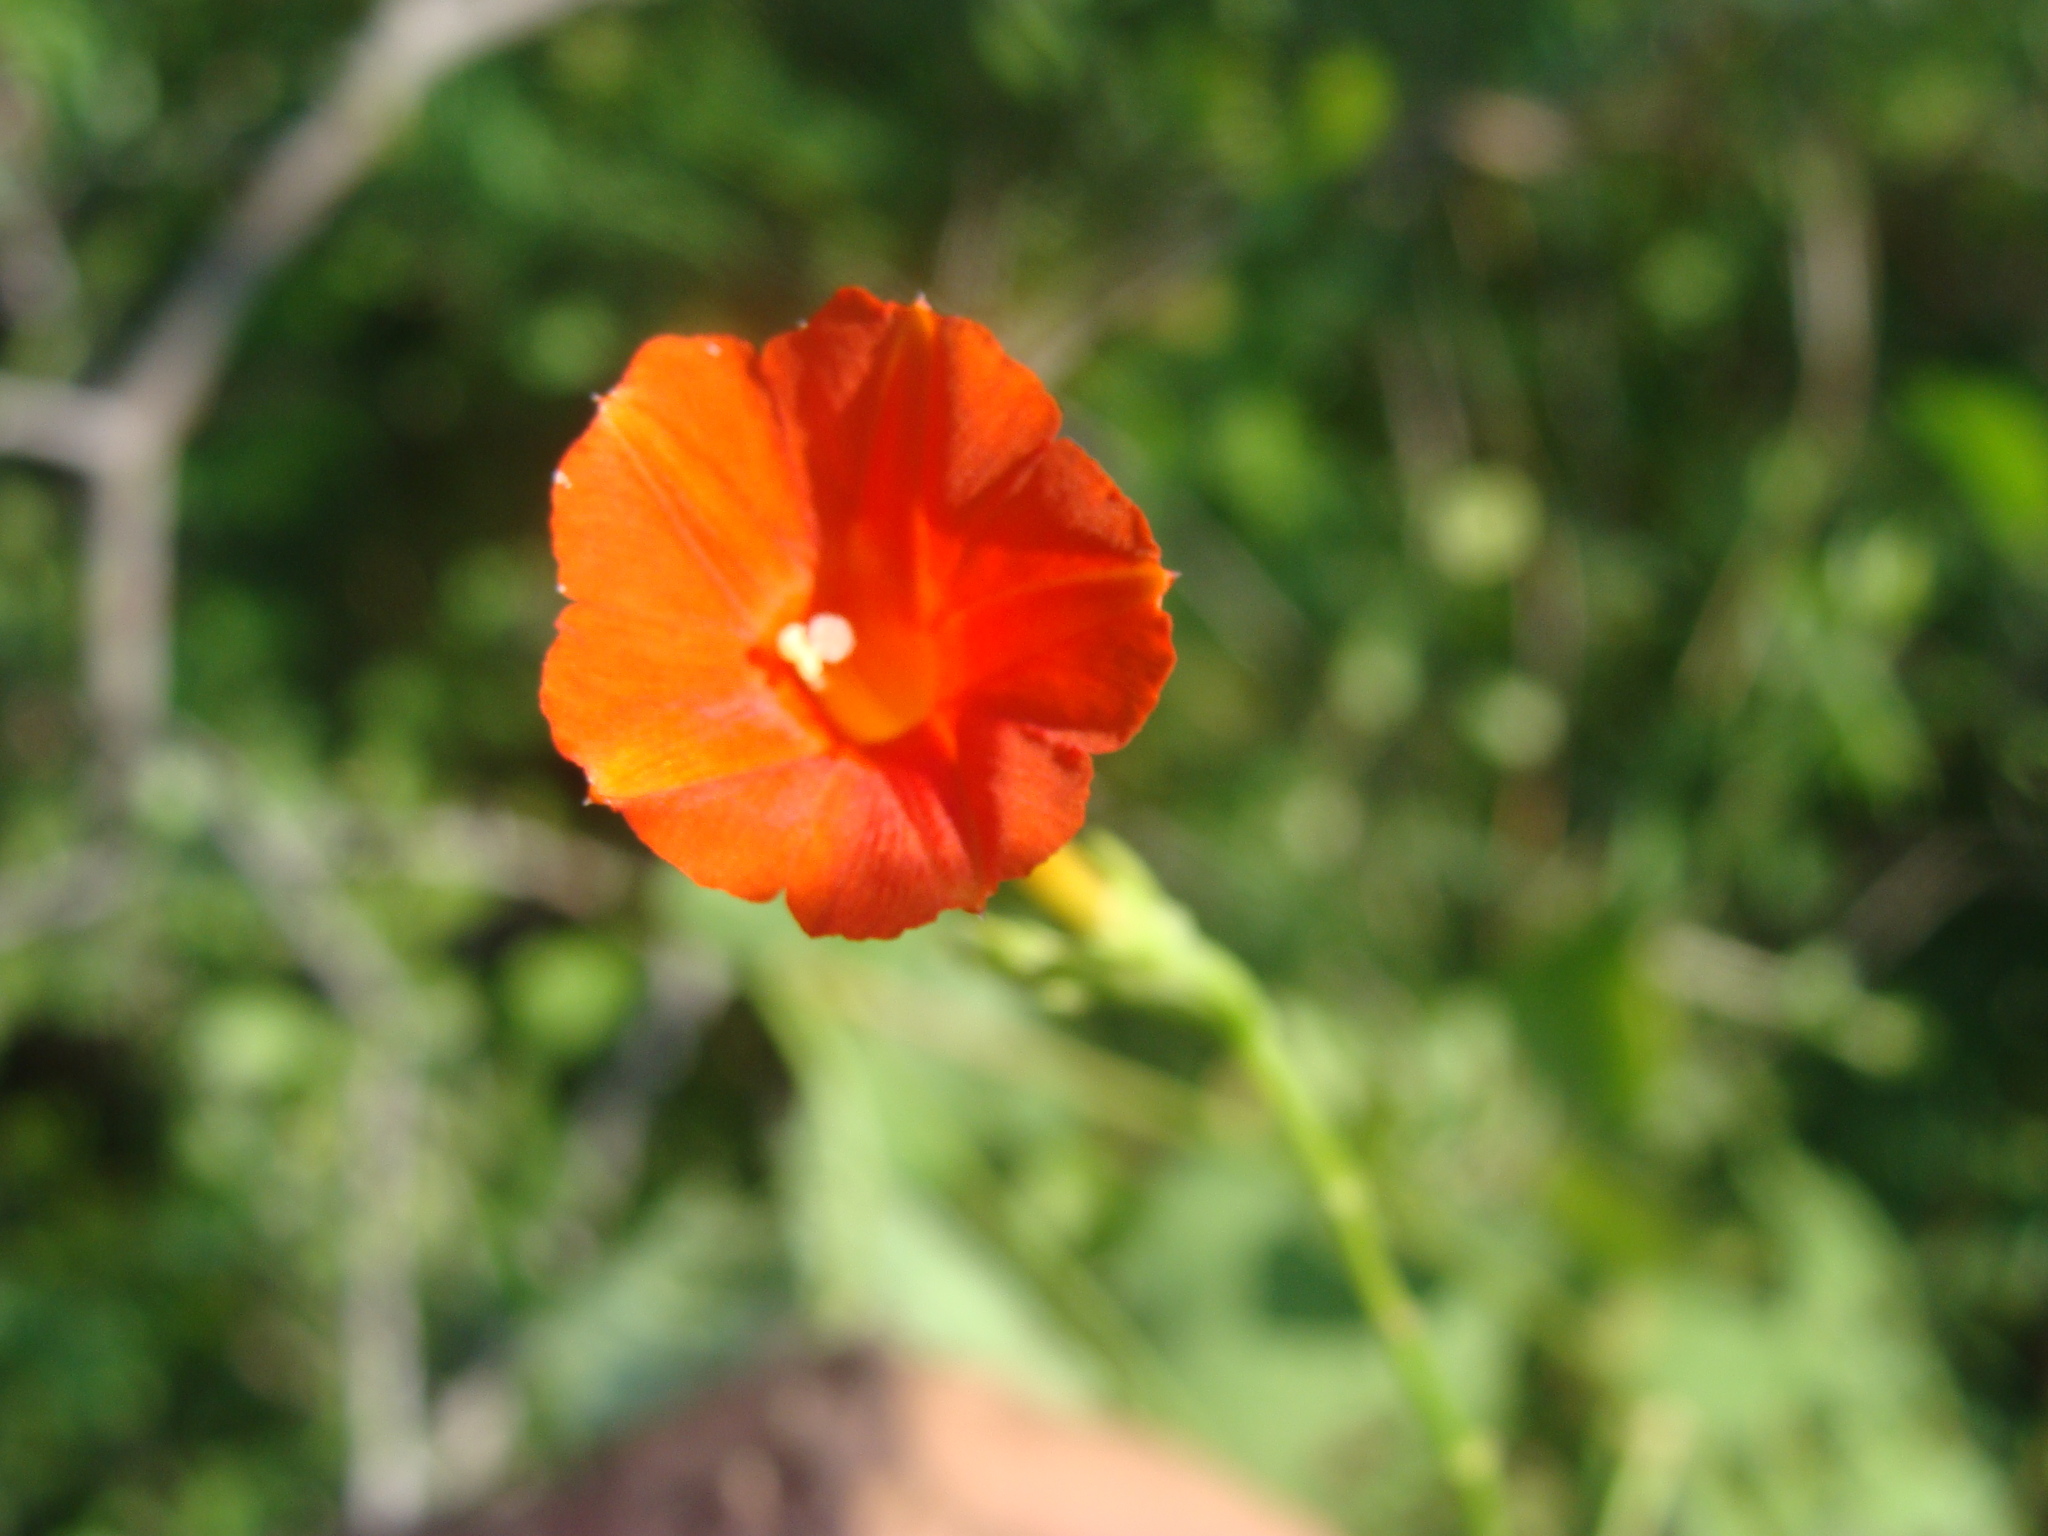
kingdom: Plantae
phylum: Tracheophyta
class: Magnoliopsida
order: Solanales
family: Convolvulaceae
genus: Ipomoea
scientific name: Ipomoea hederifolia
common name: Ivy-leaf morning-glory
